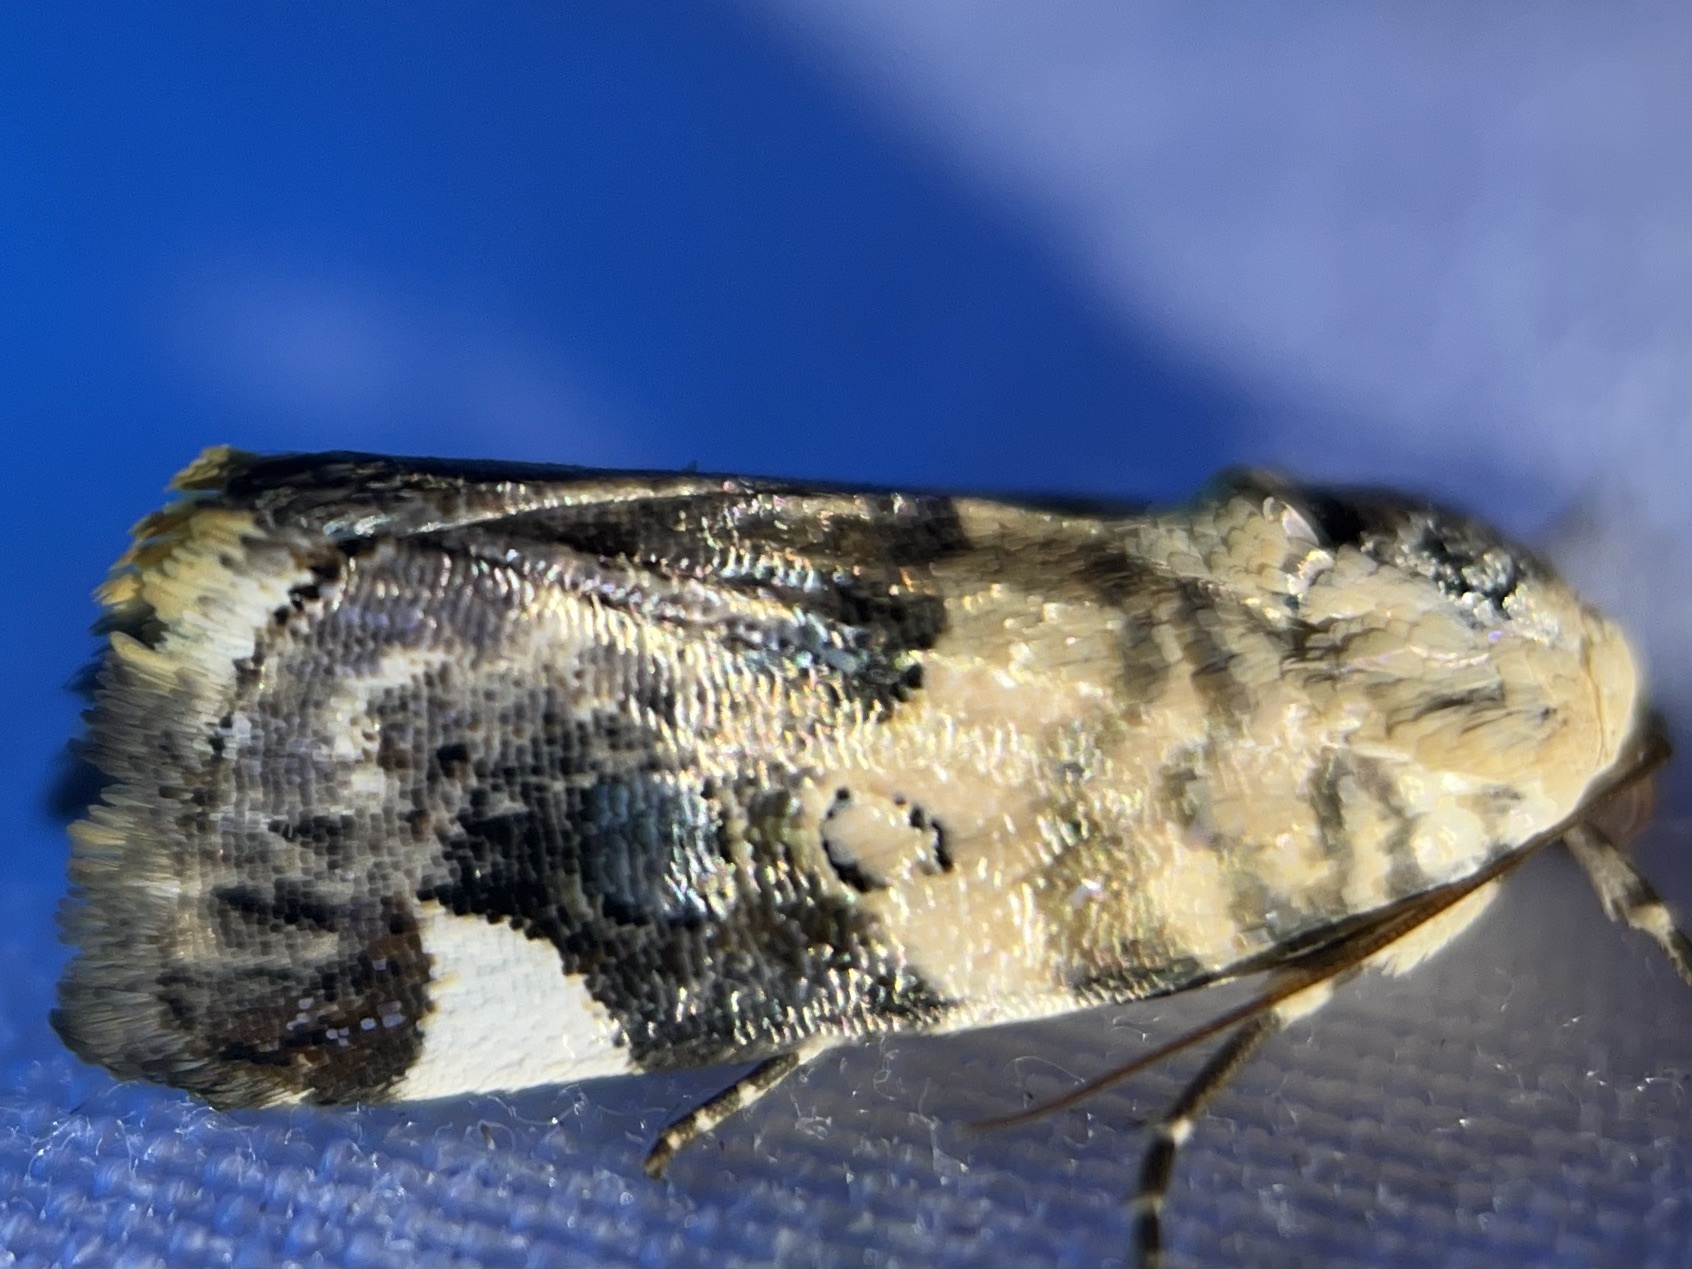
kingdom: Animalia
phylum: Arthropoda
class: Insecta
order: Lepidoptera
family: Noctuidae
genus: Acontia
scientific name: Acontia geminocula
